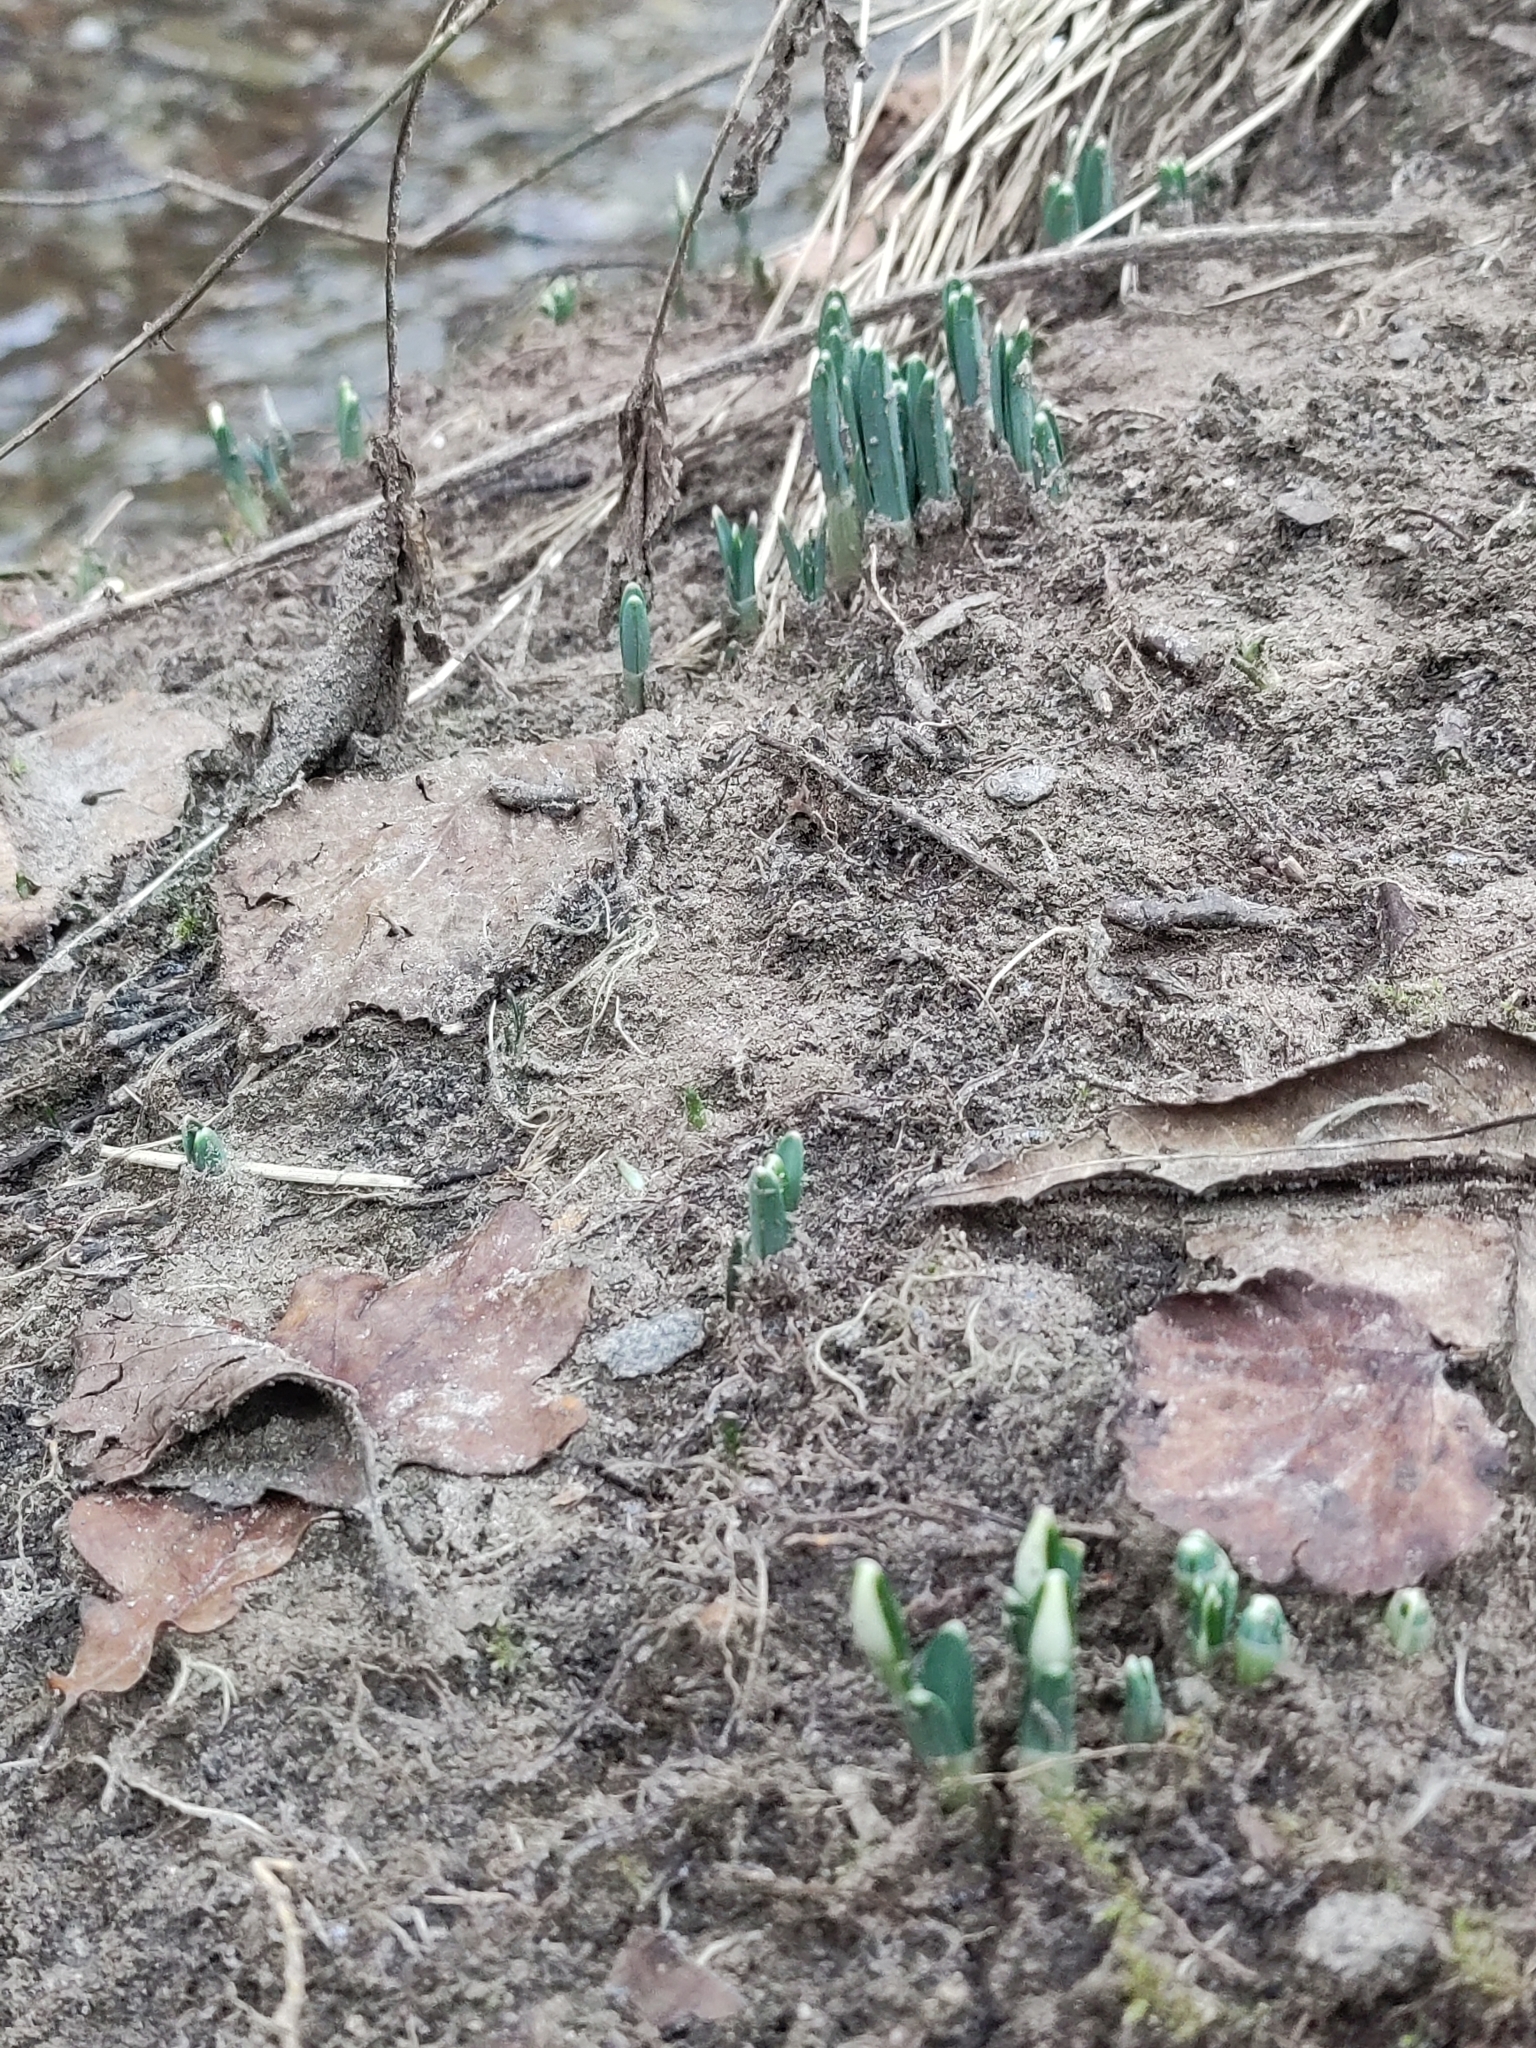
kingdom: Plantae
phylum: Tracheophyta
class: Liliopsida
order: Asparagales
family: Amaryllidaceae
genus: Galanthus
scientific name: Galanthus nivalis
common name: Snowdrop
